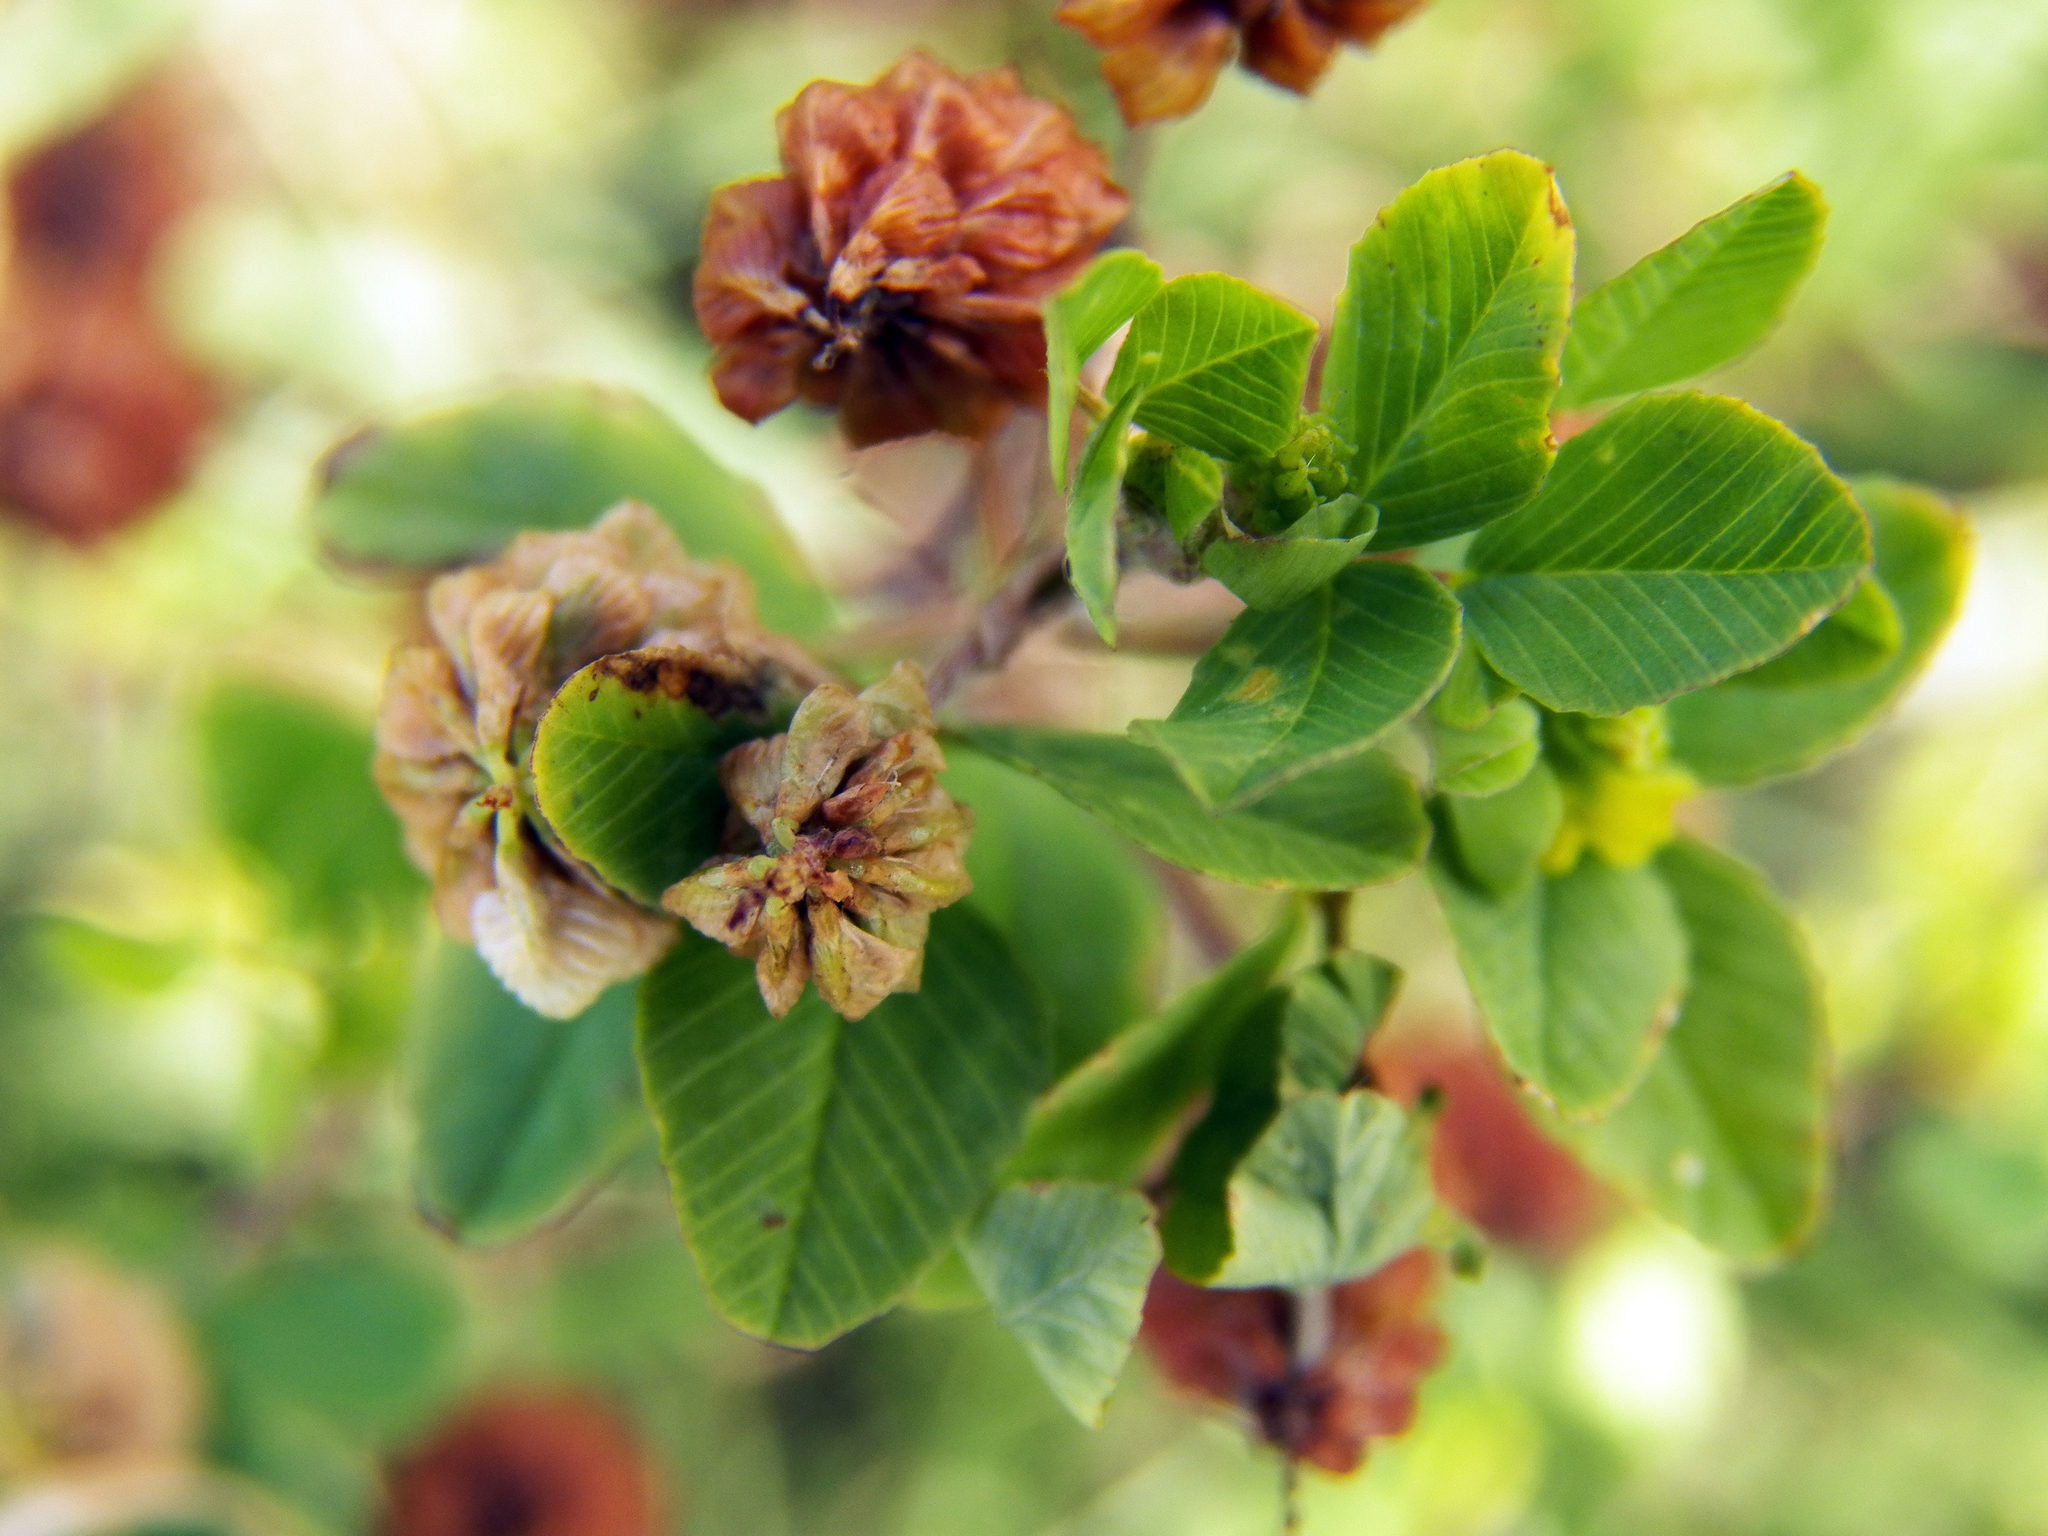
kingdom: Plantae
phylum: Tracheophyta
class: Magnoliopsida
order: Fabales
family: Fabaceae
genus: Trifolium
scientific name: Trifolium campestre
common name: Field clover
